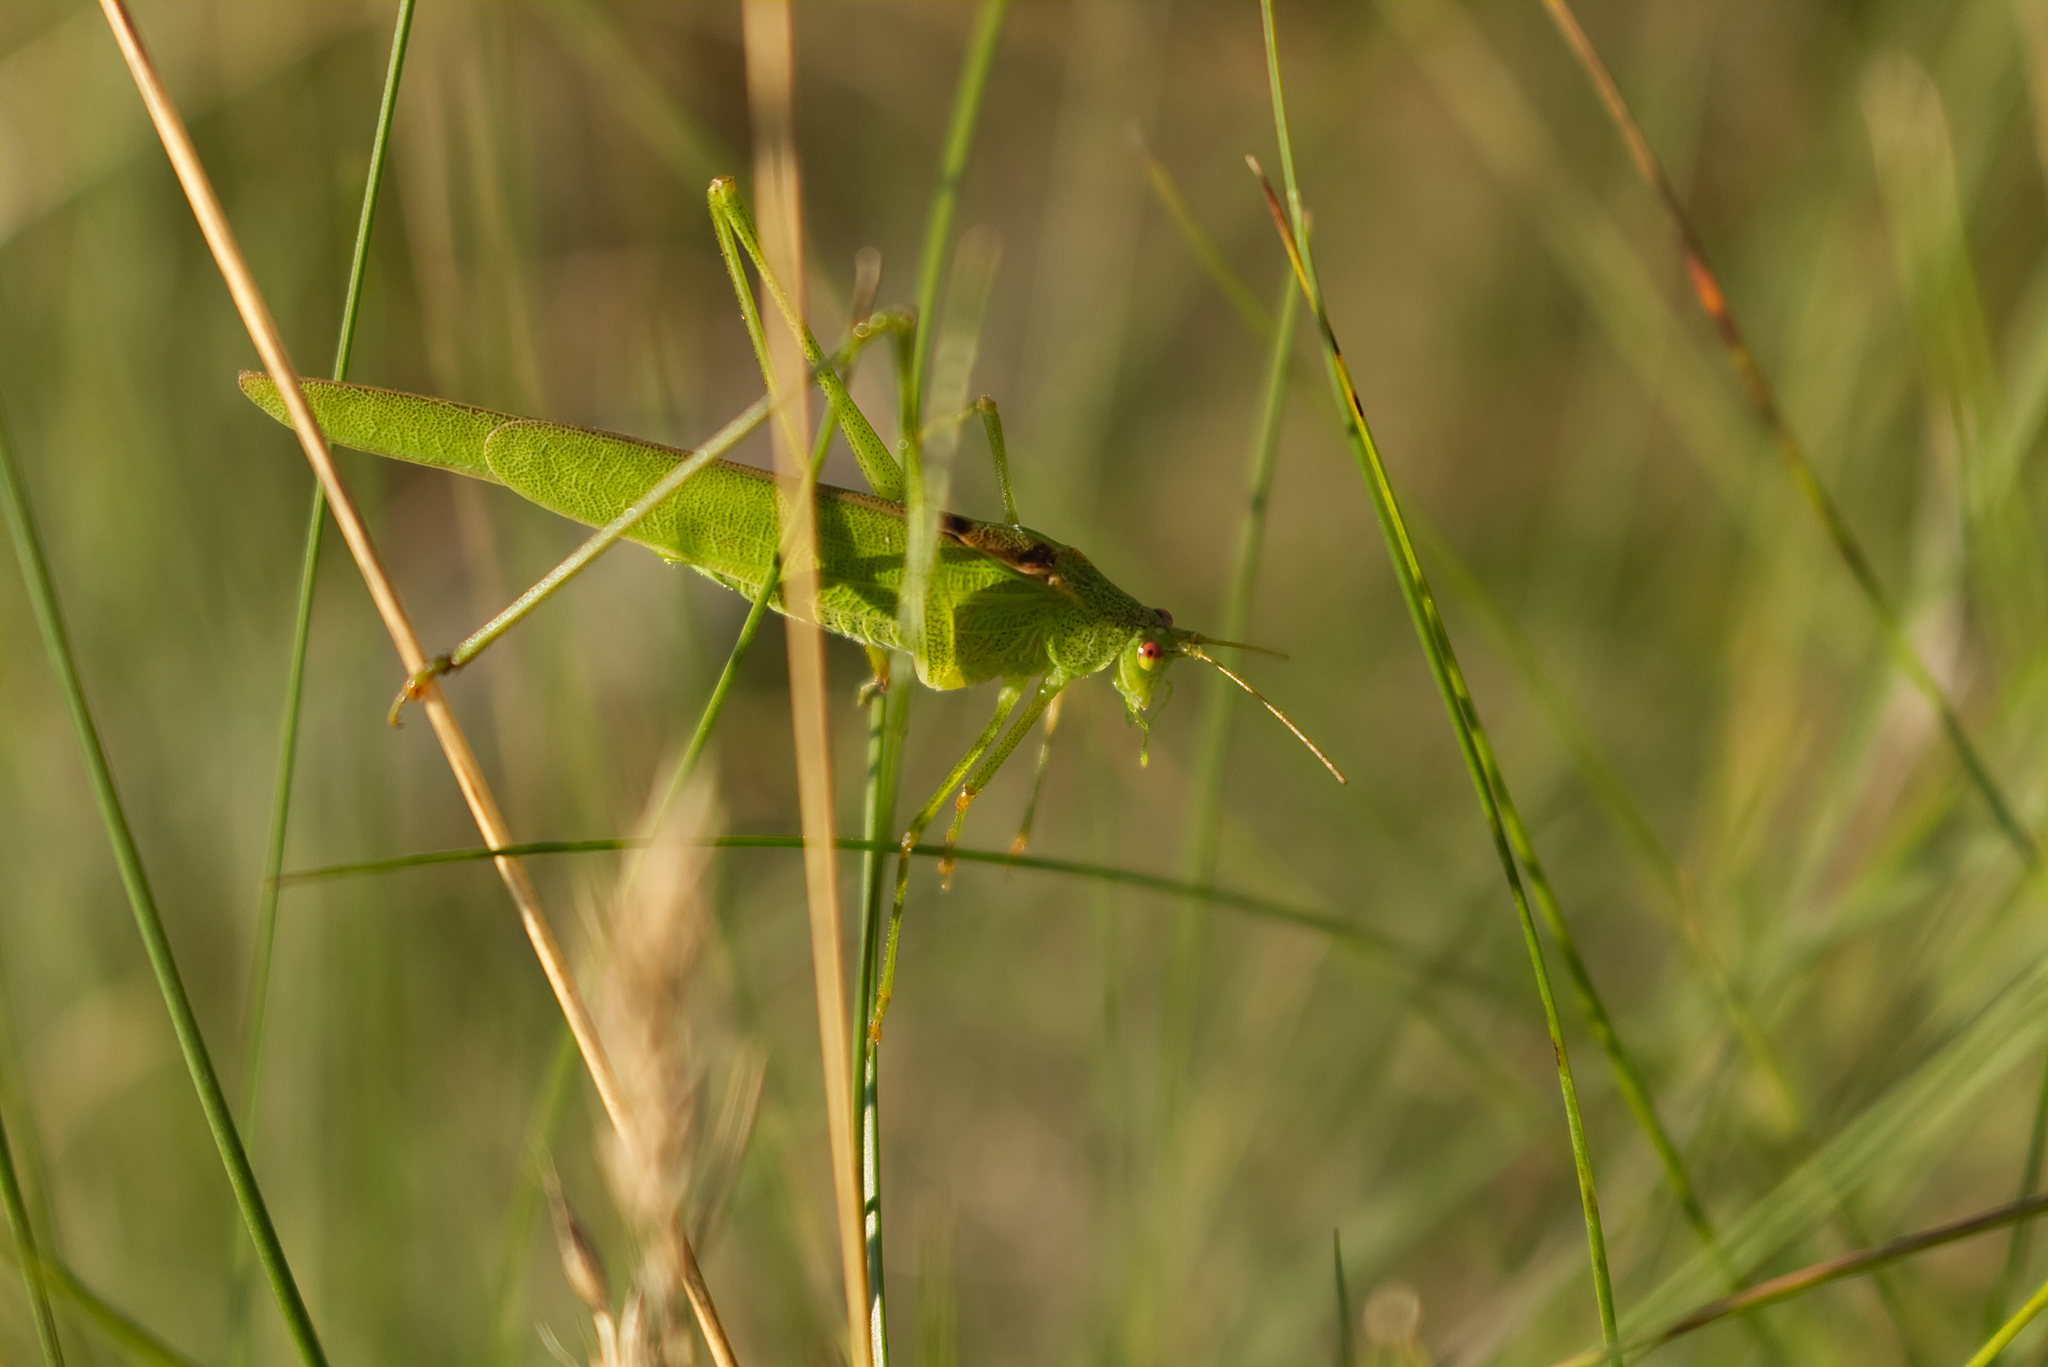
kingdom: Animalia
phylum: Arthropoda
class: Insecta
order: Orthoptera
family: Tettigoniidae
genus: Phaneroptera
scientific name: Phaneroptera falcata
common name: Sickle-bearing bush-cricket
